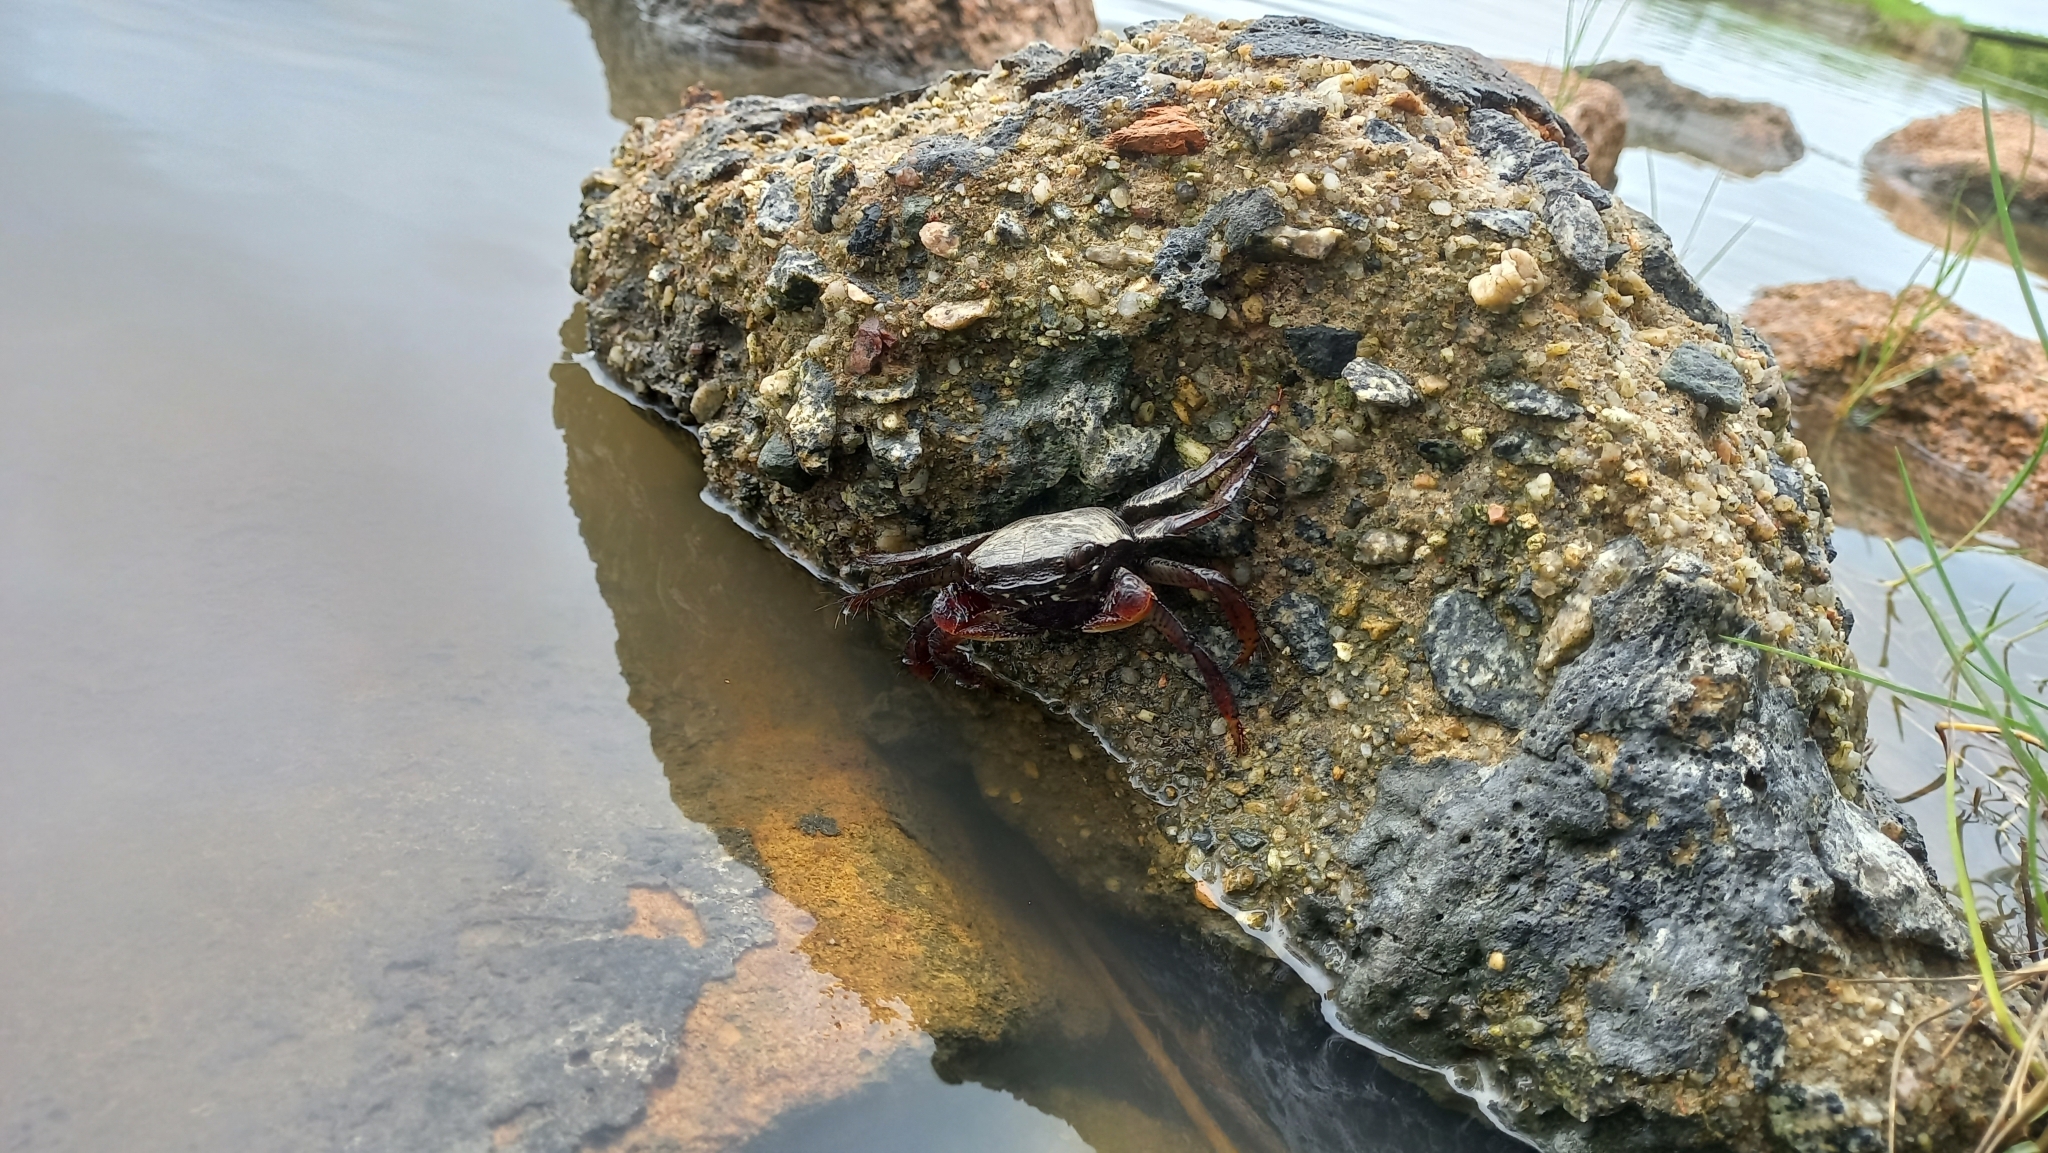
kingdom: Animalia
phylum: Arthropoda
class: Malacostraca
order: Decapoda
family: Grapsidae
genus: Goniopsis
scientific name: Goniopsis cruentata
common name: Mangrove crab
